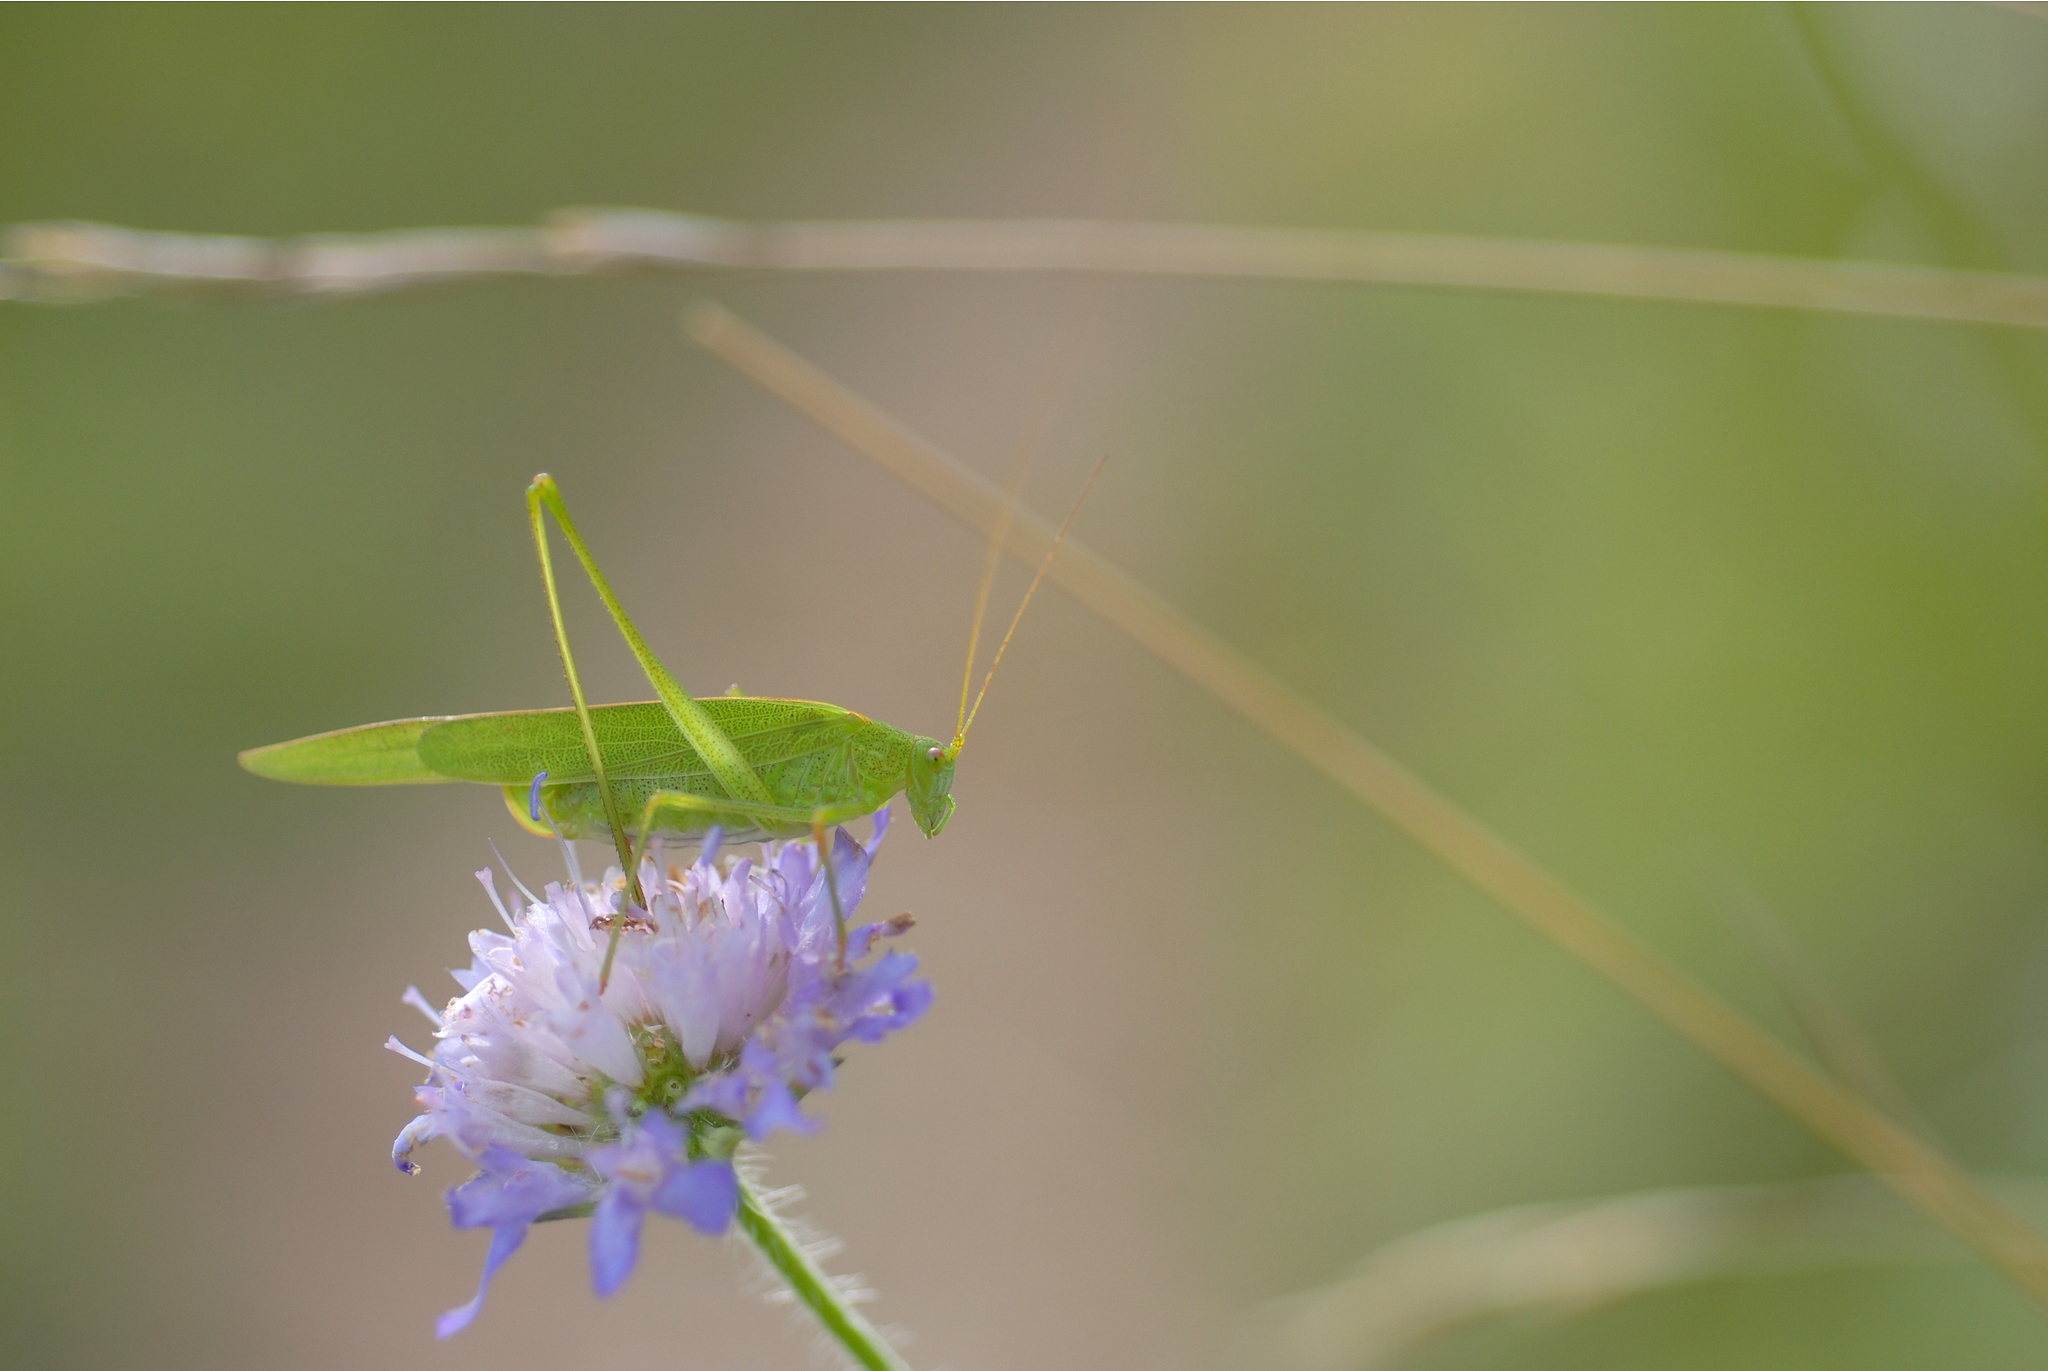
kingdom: Animalia
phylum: Arthropoda
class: Insecta
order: Orthoptera
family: Tettigoniidae
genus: Phaneroptera
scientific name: Phaneroptera falcata
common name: Sickle-bearing bush-cricket
